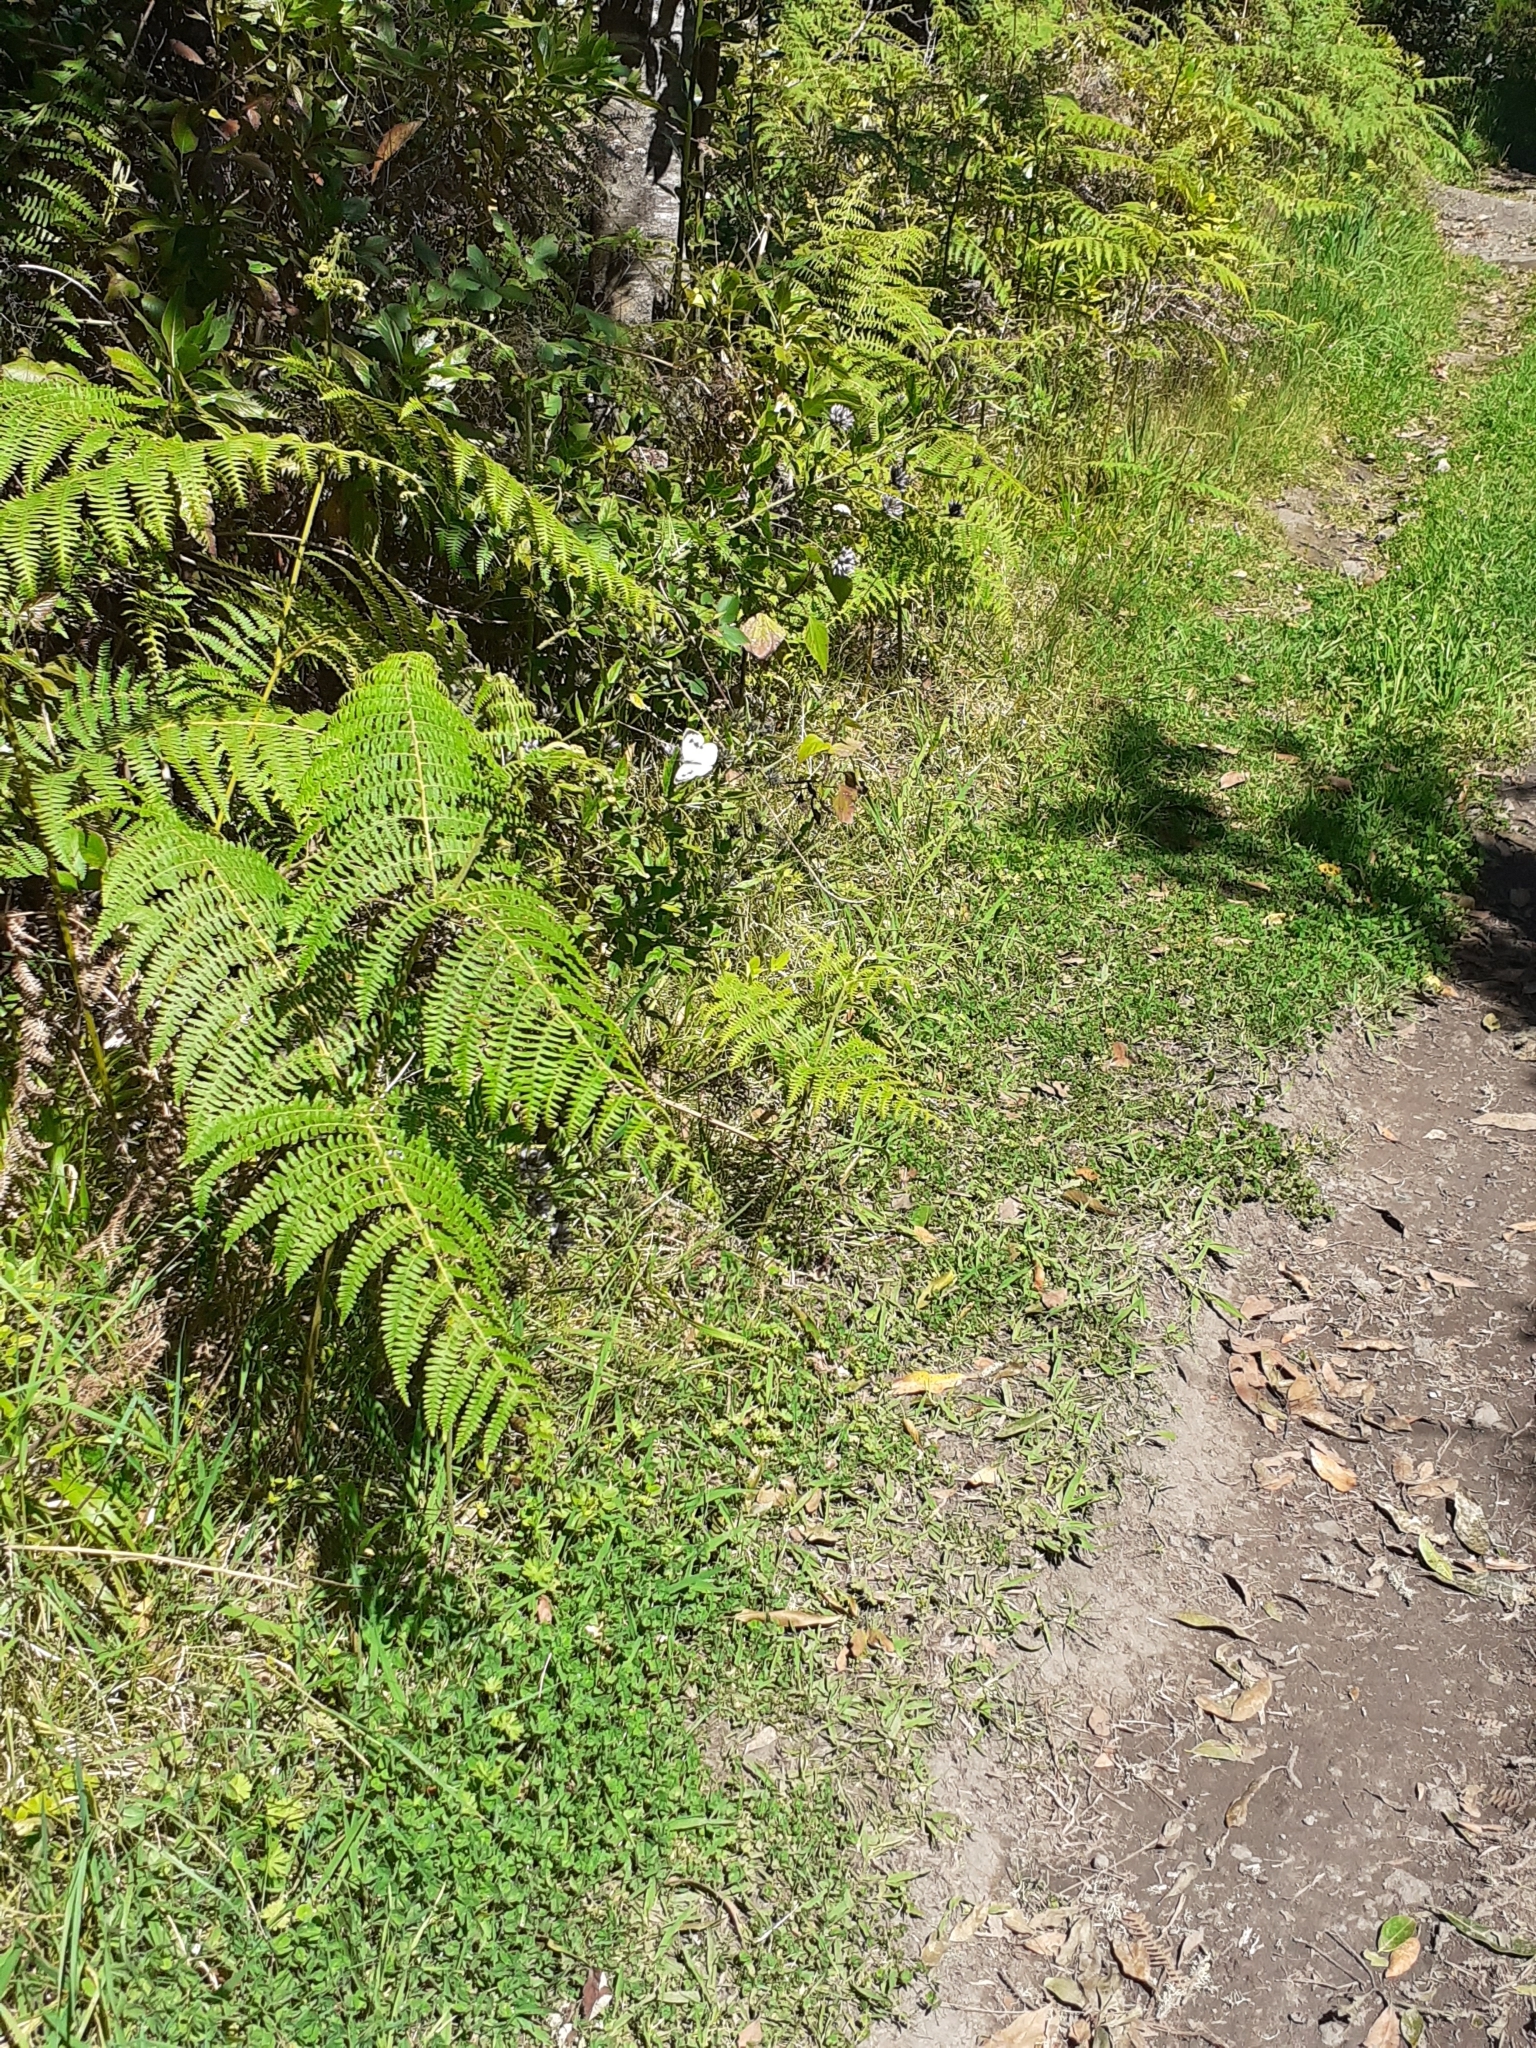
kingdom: Animalia
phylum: Arthropoda
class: Insecta
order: Lepidoptera
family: Pieridae
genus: Pieris
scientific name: Pieris cheiranthi
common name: Canary islands large white
